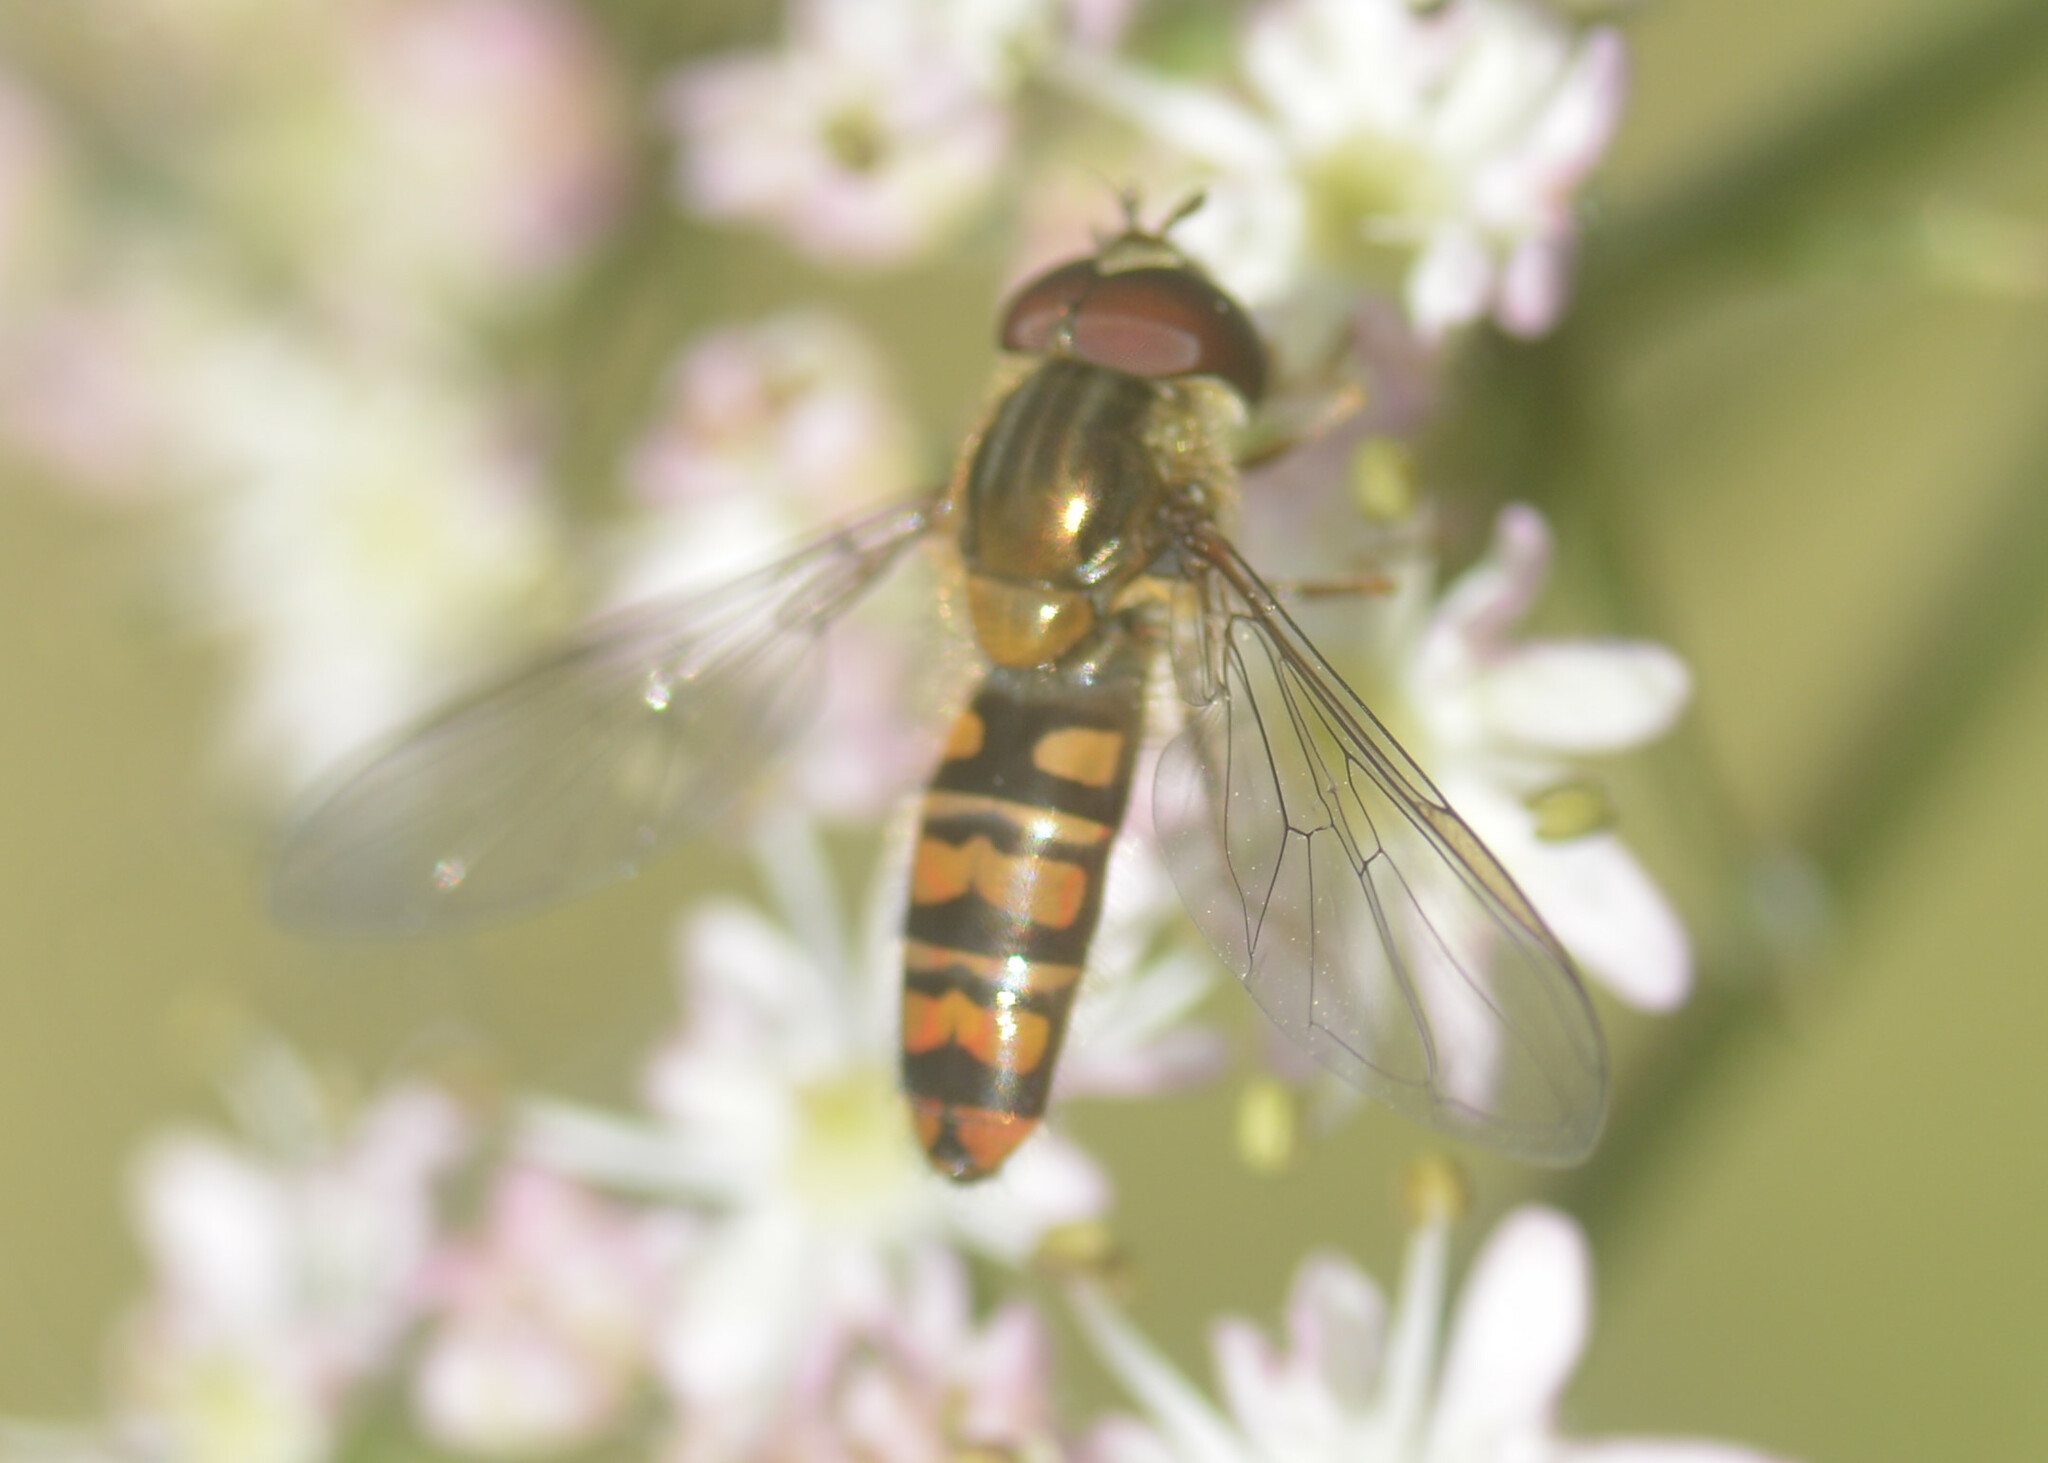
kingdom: Animalia
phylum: Arthropoda
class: Insecta
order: Diptera
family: Syrphidae
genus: Episyrphus
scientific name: Episyrphus balteatus
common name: Marmalade hoverfly
